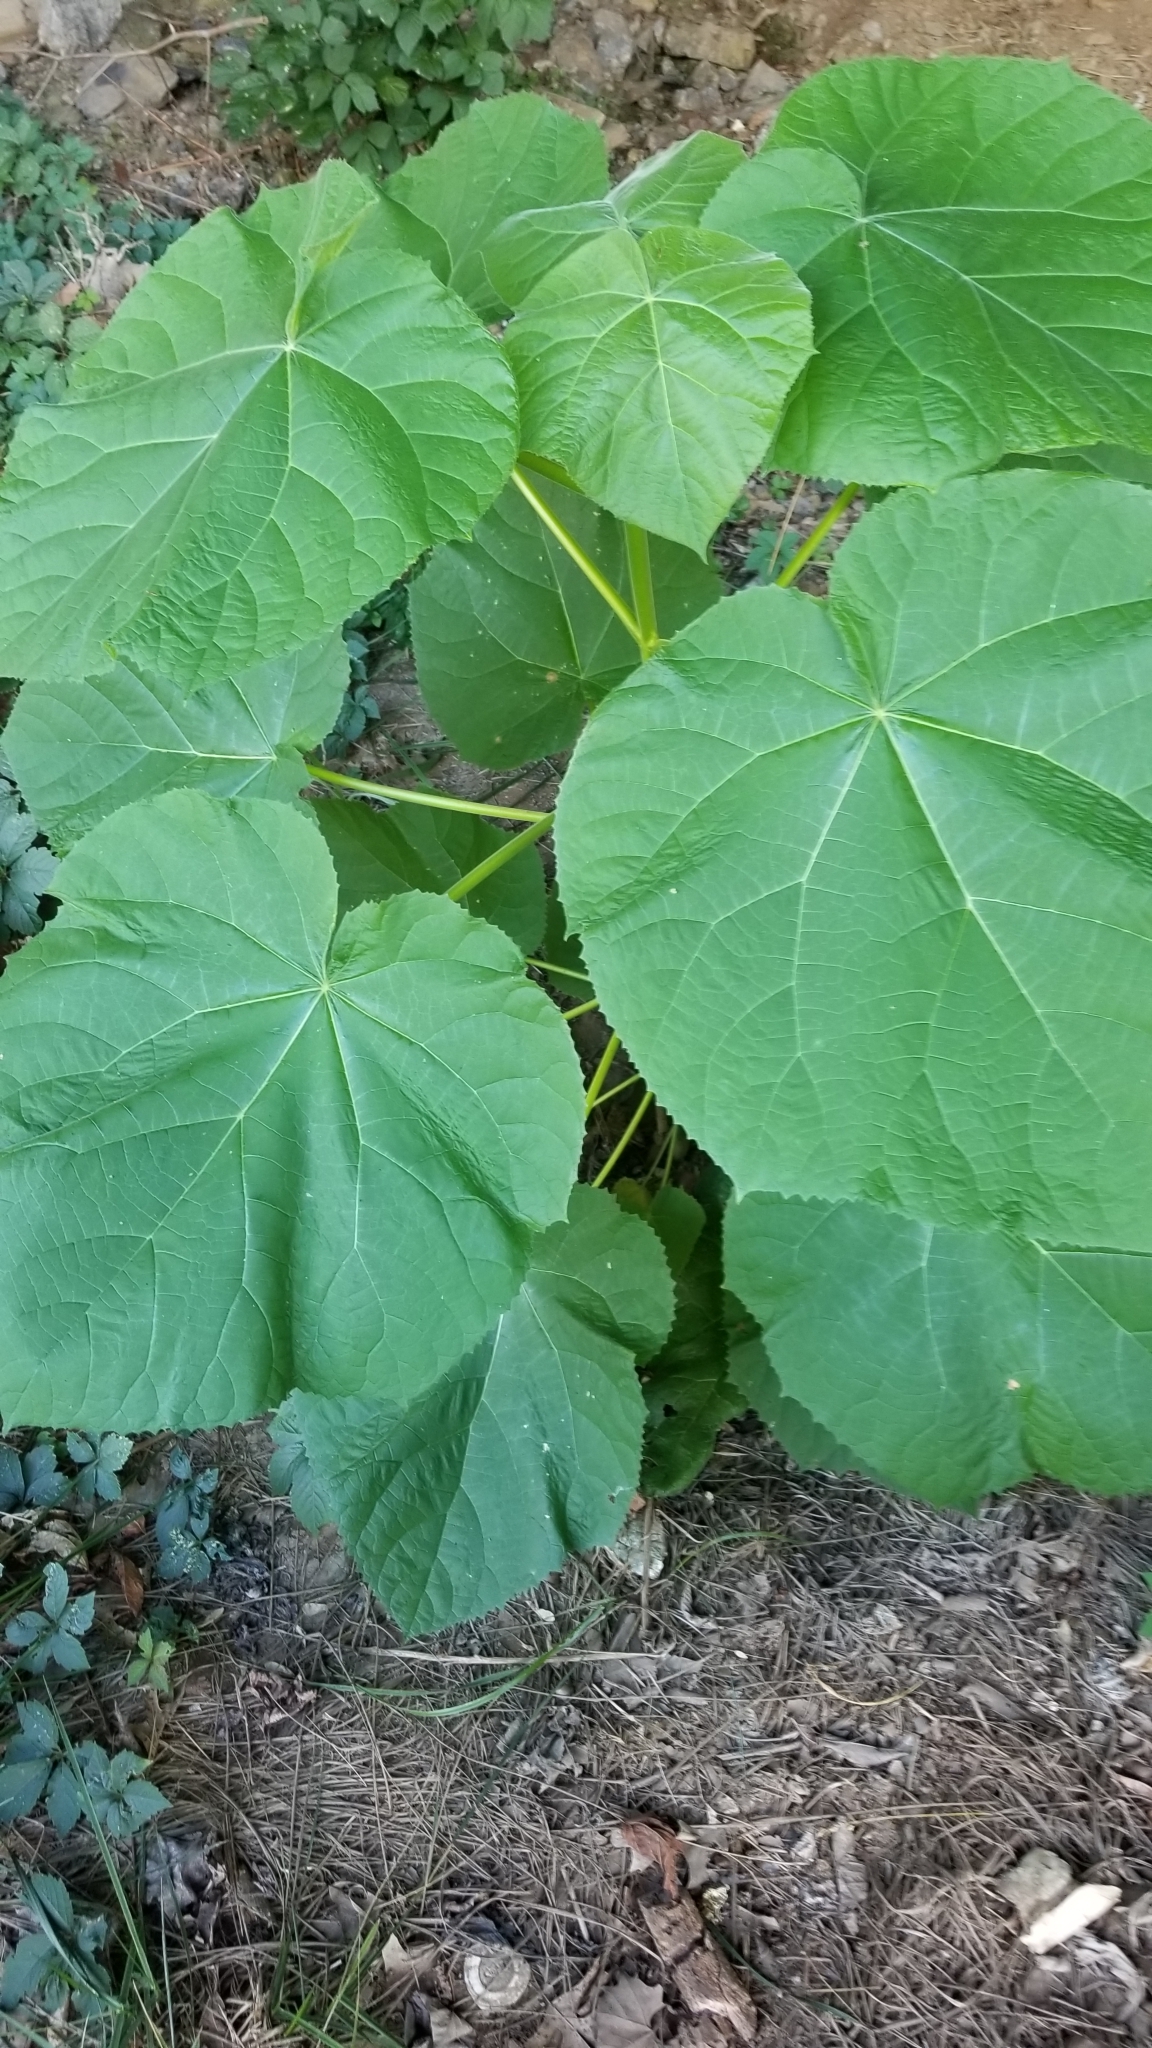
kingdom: Plantae
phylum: Tracheophyta
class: Magnoliopsida
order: Lamiales
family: Paulowniaceae
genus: Paulownia
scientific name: Paulownia tomentosa
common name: Foxglove-tree
